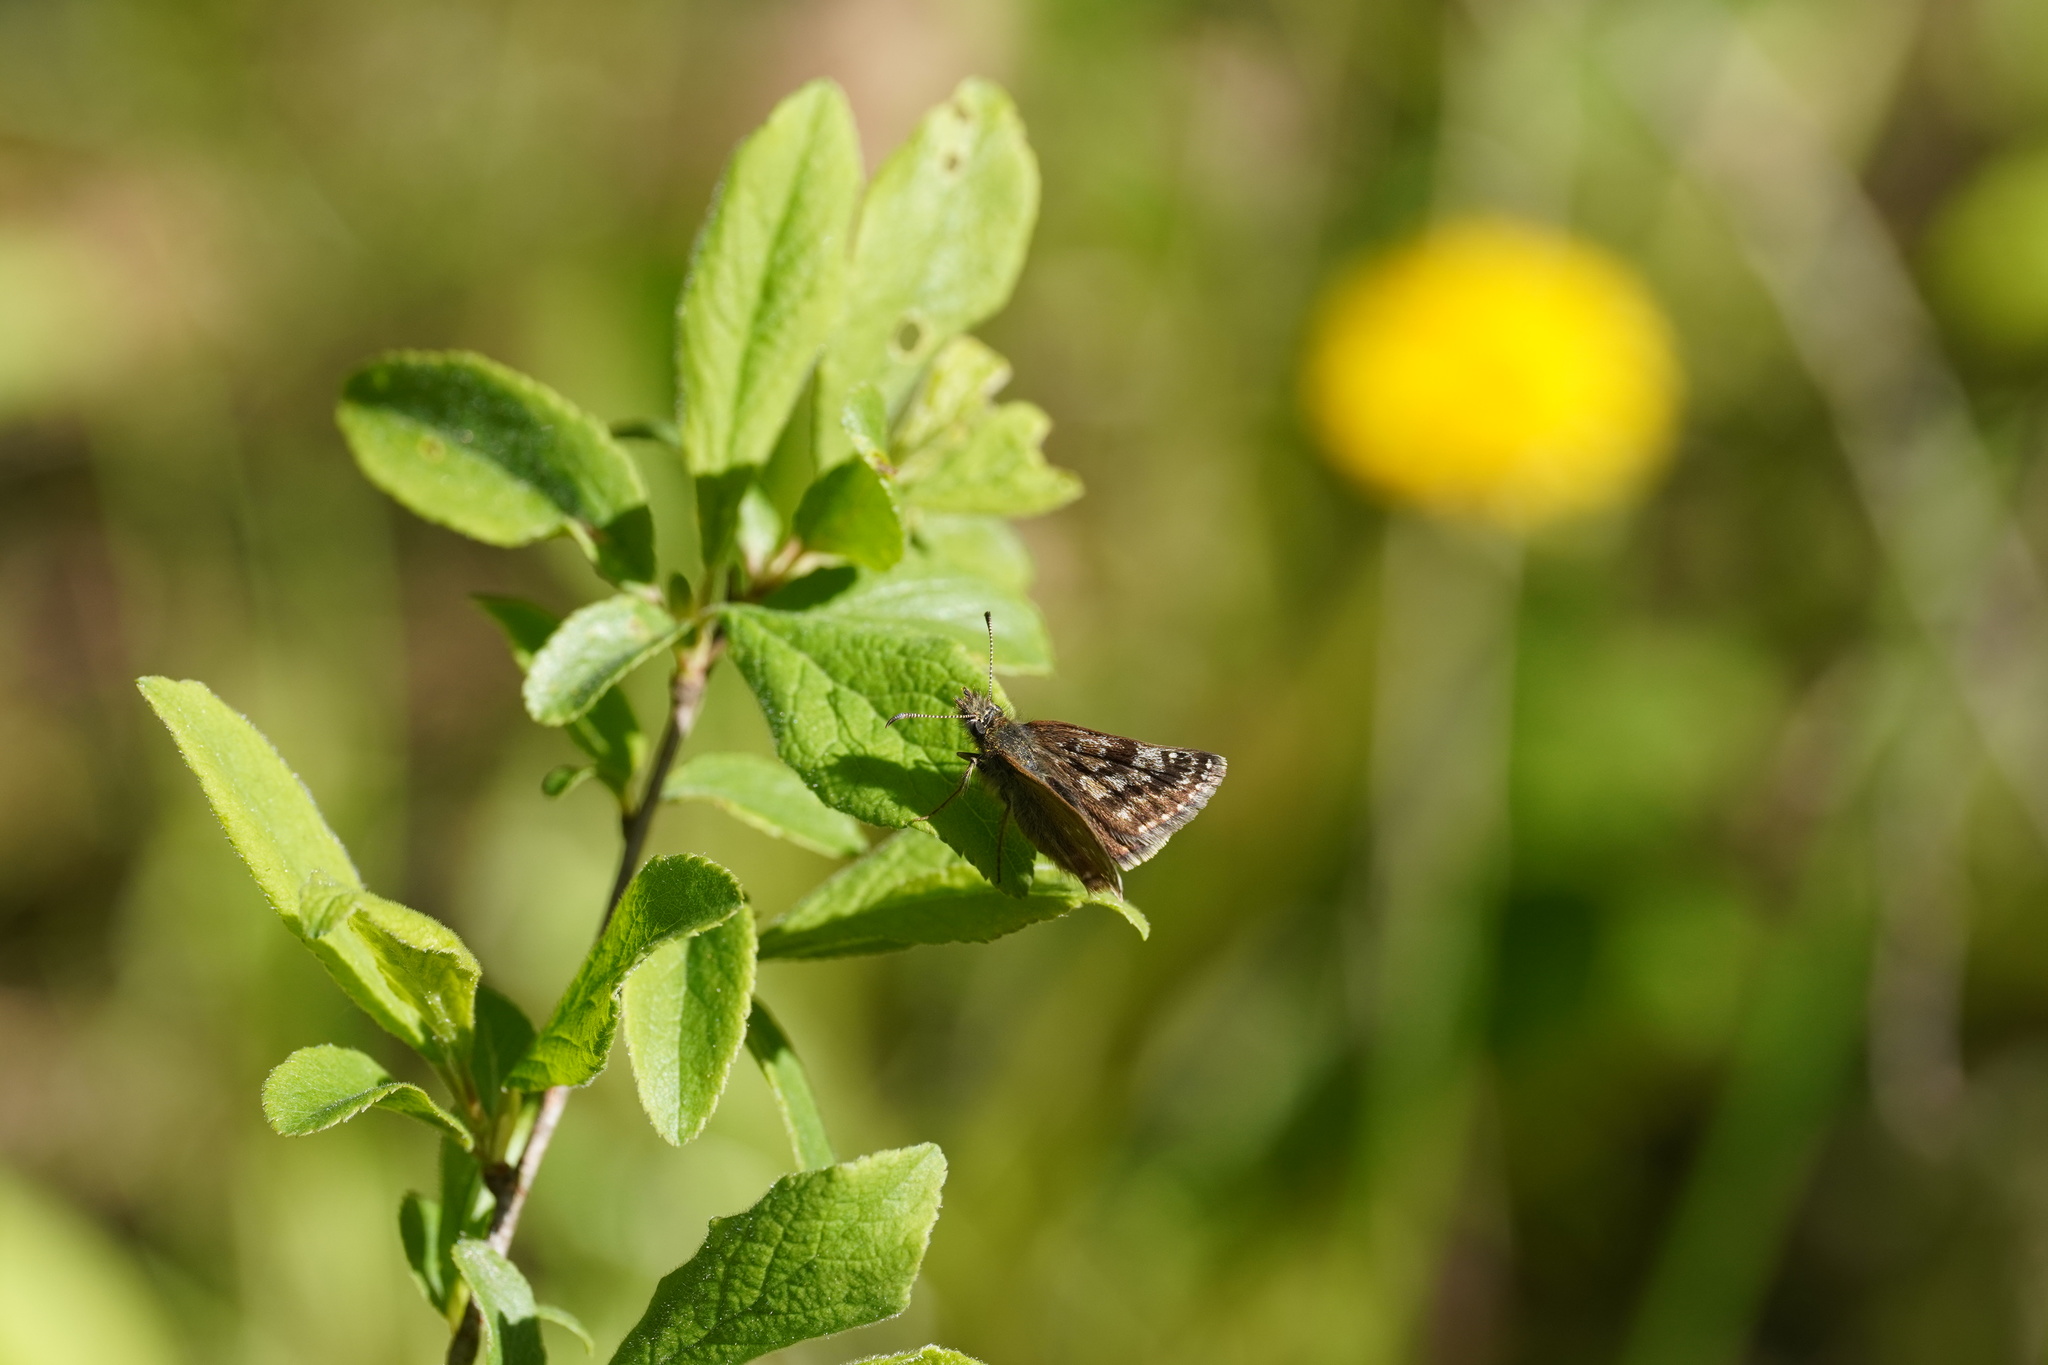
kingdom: Animalia
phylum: Arthropoda
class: Insecta
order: Lepidoptera
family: Hesperiidae
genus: Erynnis
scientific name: Erynnis tages
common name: Dingy skipper
